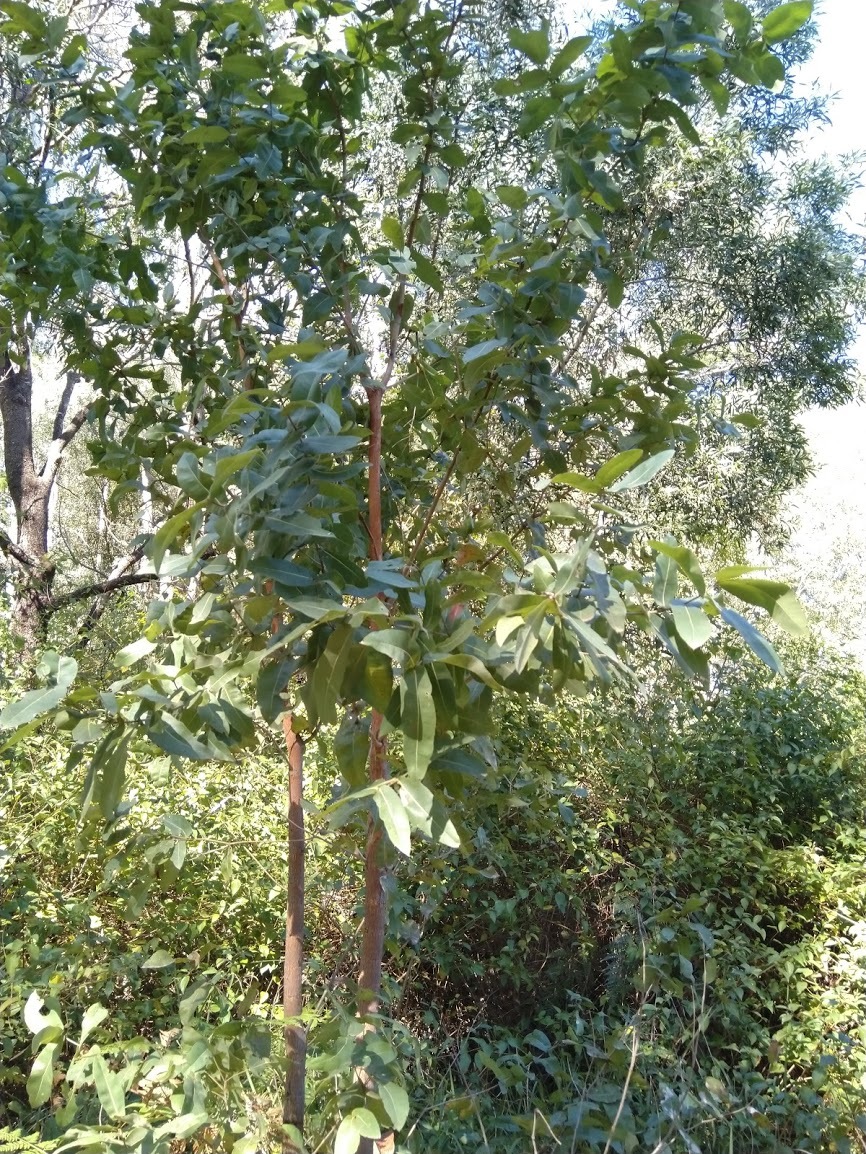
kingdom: Plantae
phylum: Tracheophyta
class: Magnoliopsida
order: Myrtales
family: Myrtaceae
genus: Angophora
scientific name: Angophora subvelutina
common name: Broad-leaved apple
